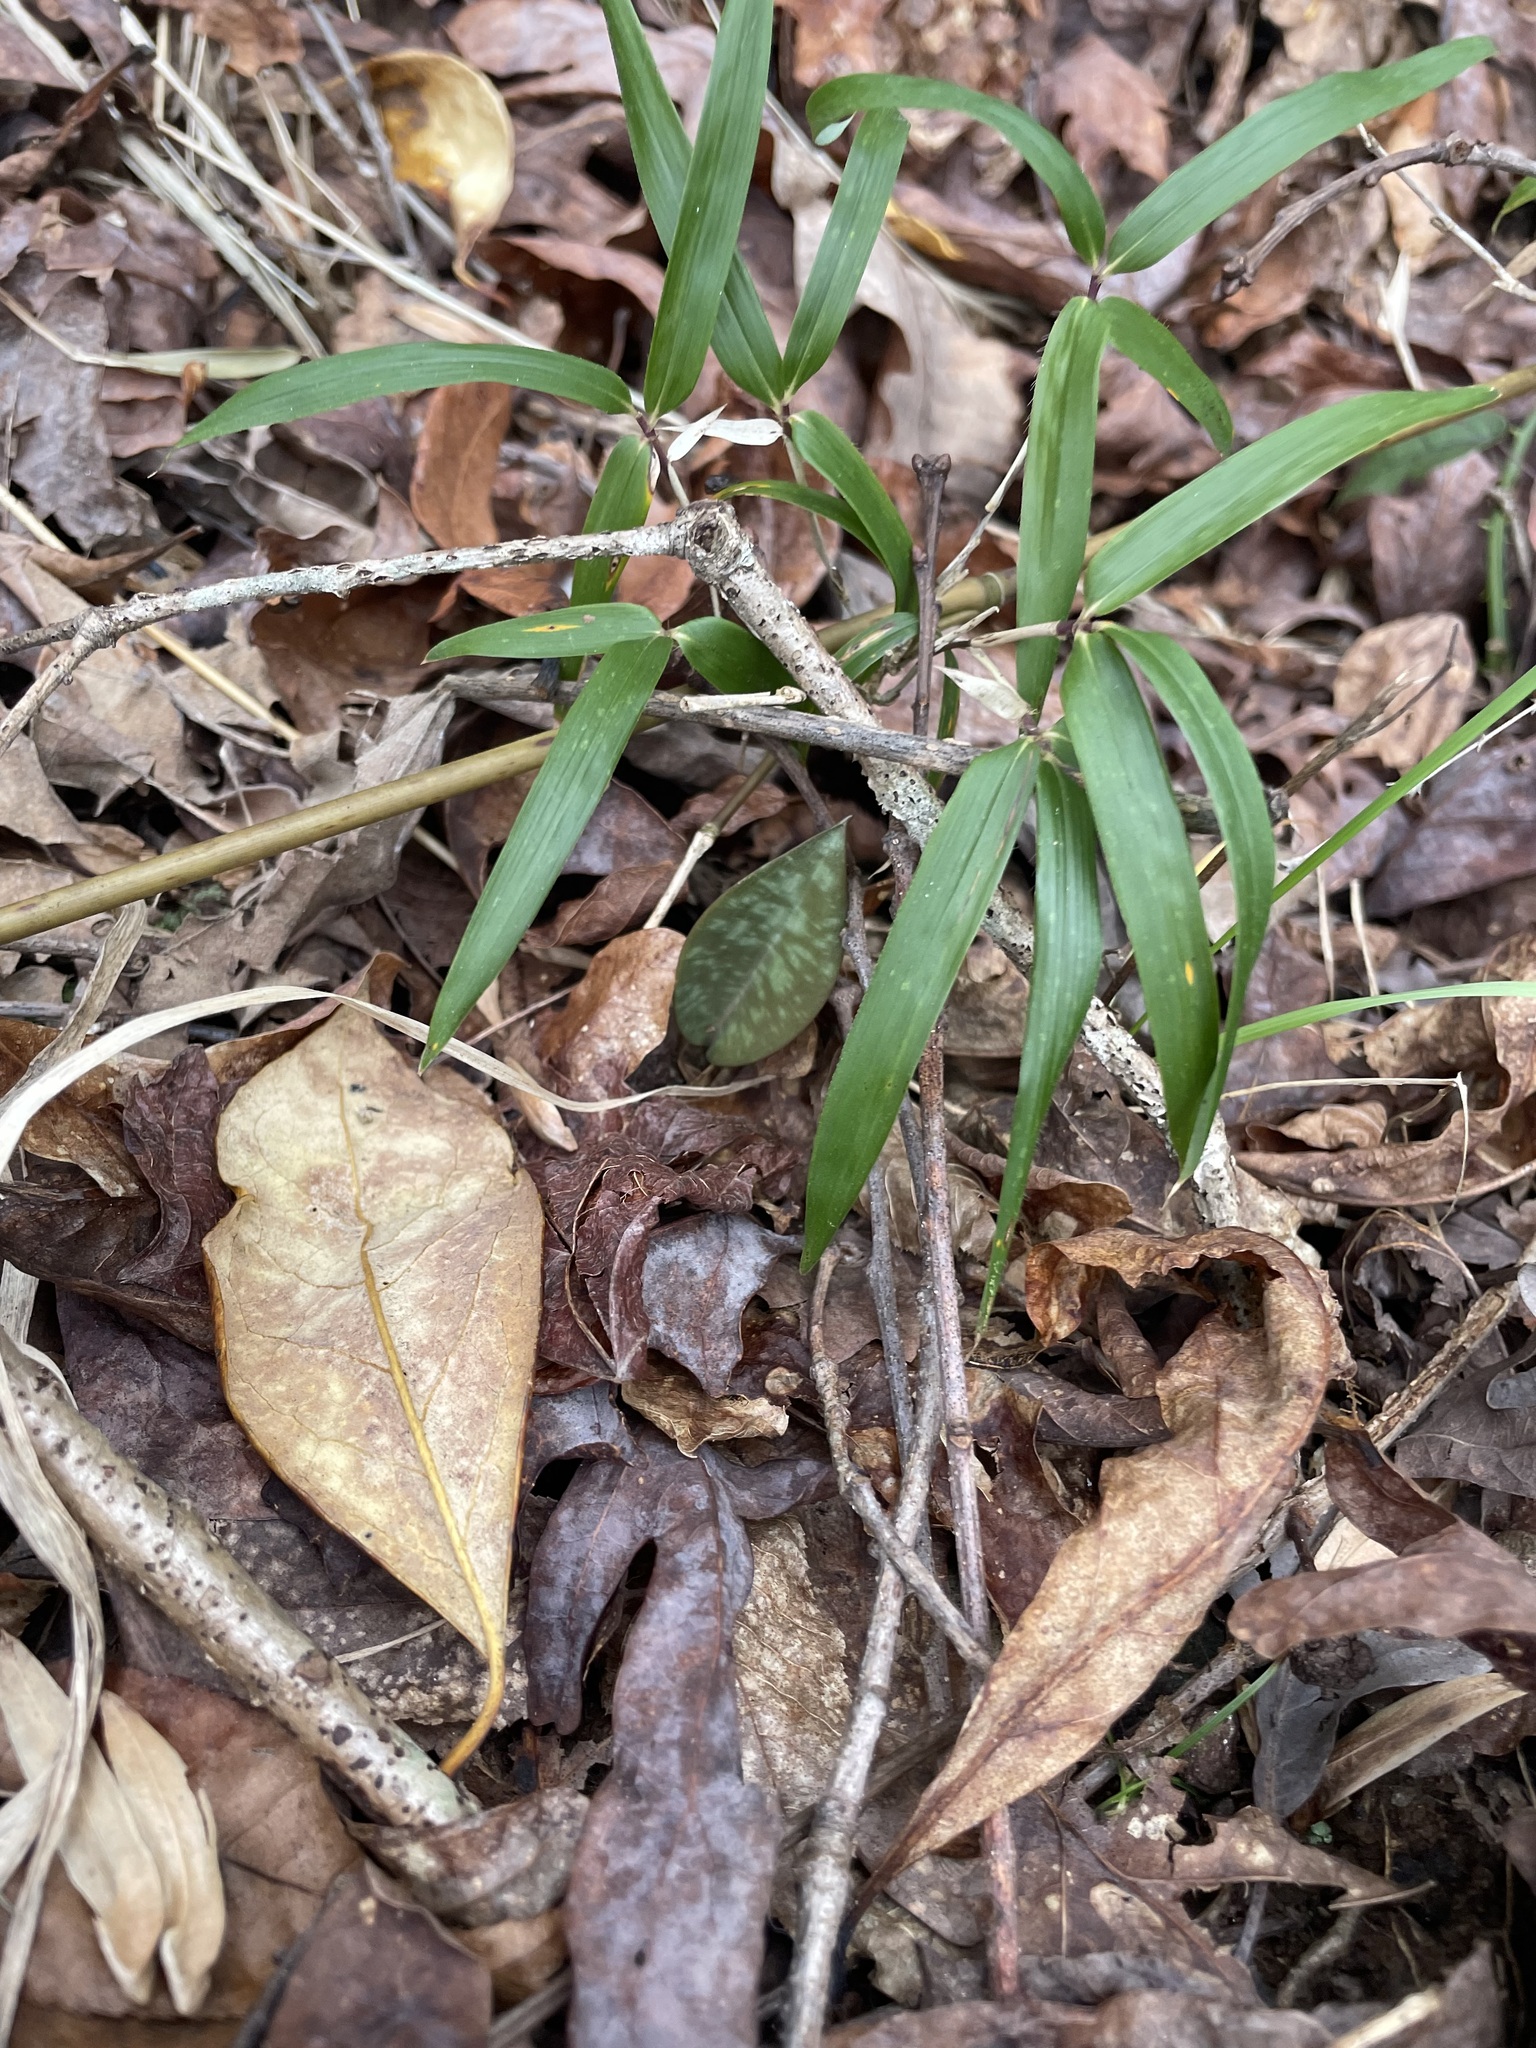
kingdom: Plantae
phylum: Tracheophyta
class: Liliopsida
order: Liliales
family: Liliaceae
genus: Erythronium
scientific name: Erythronium umbilicatum
